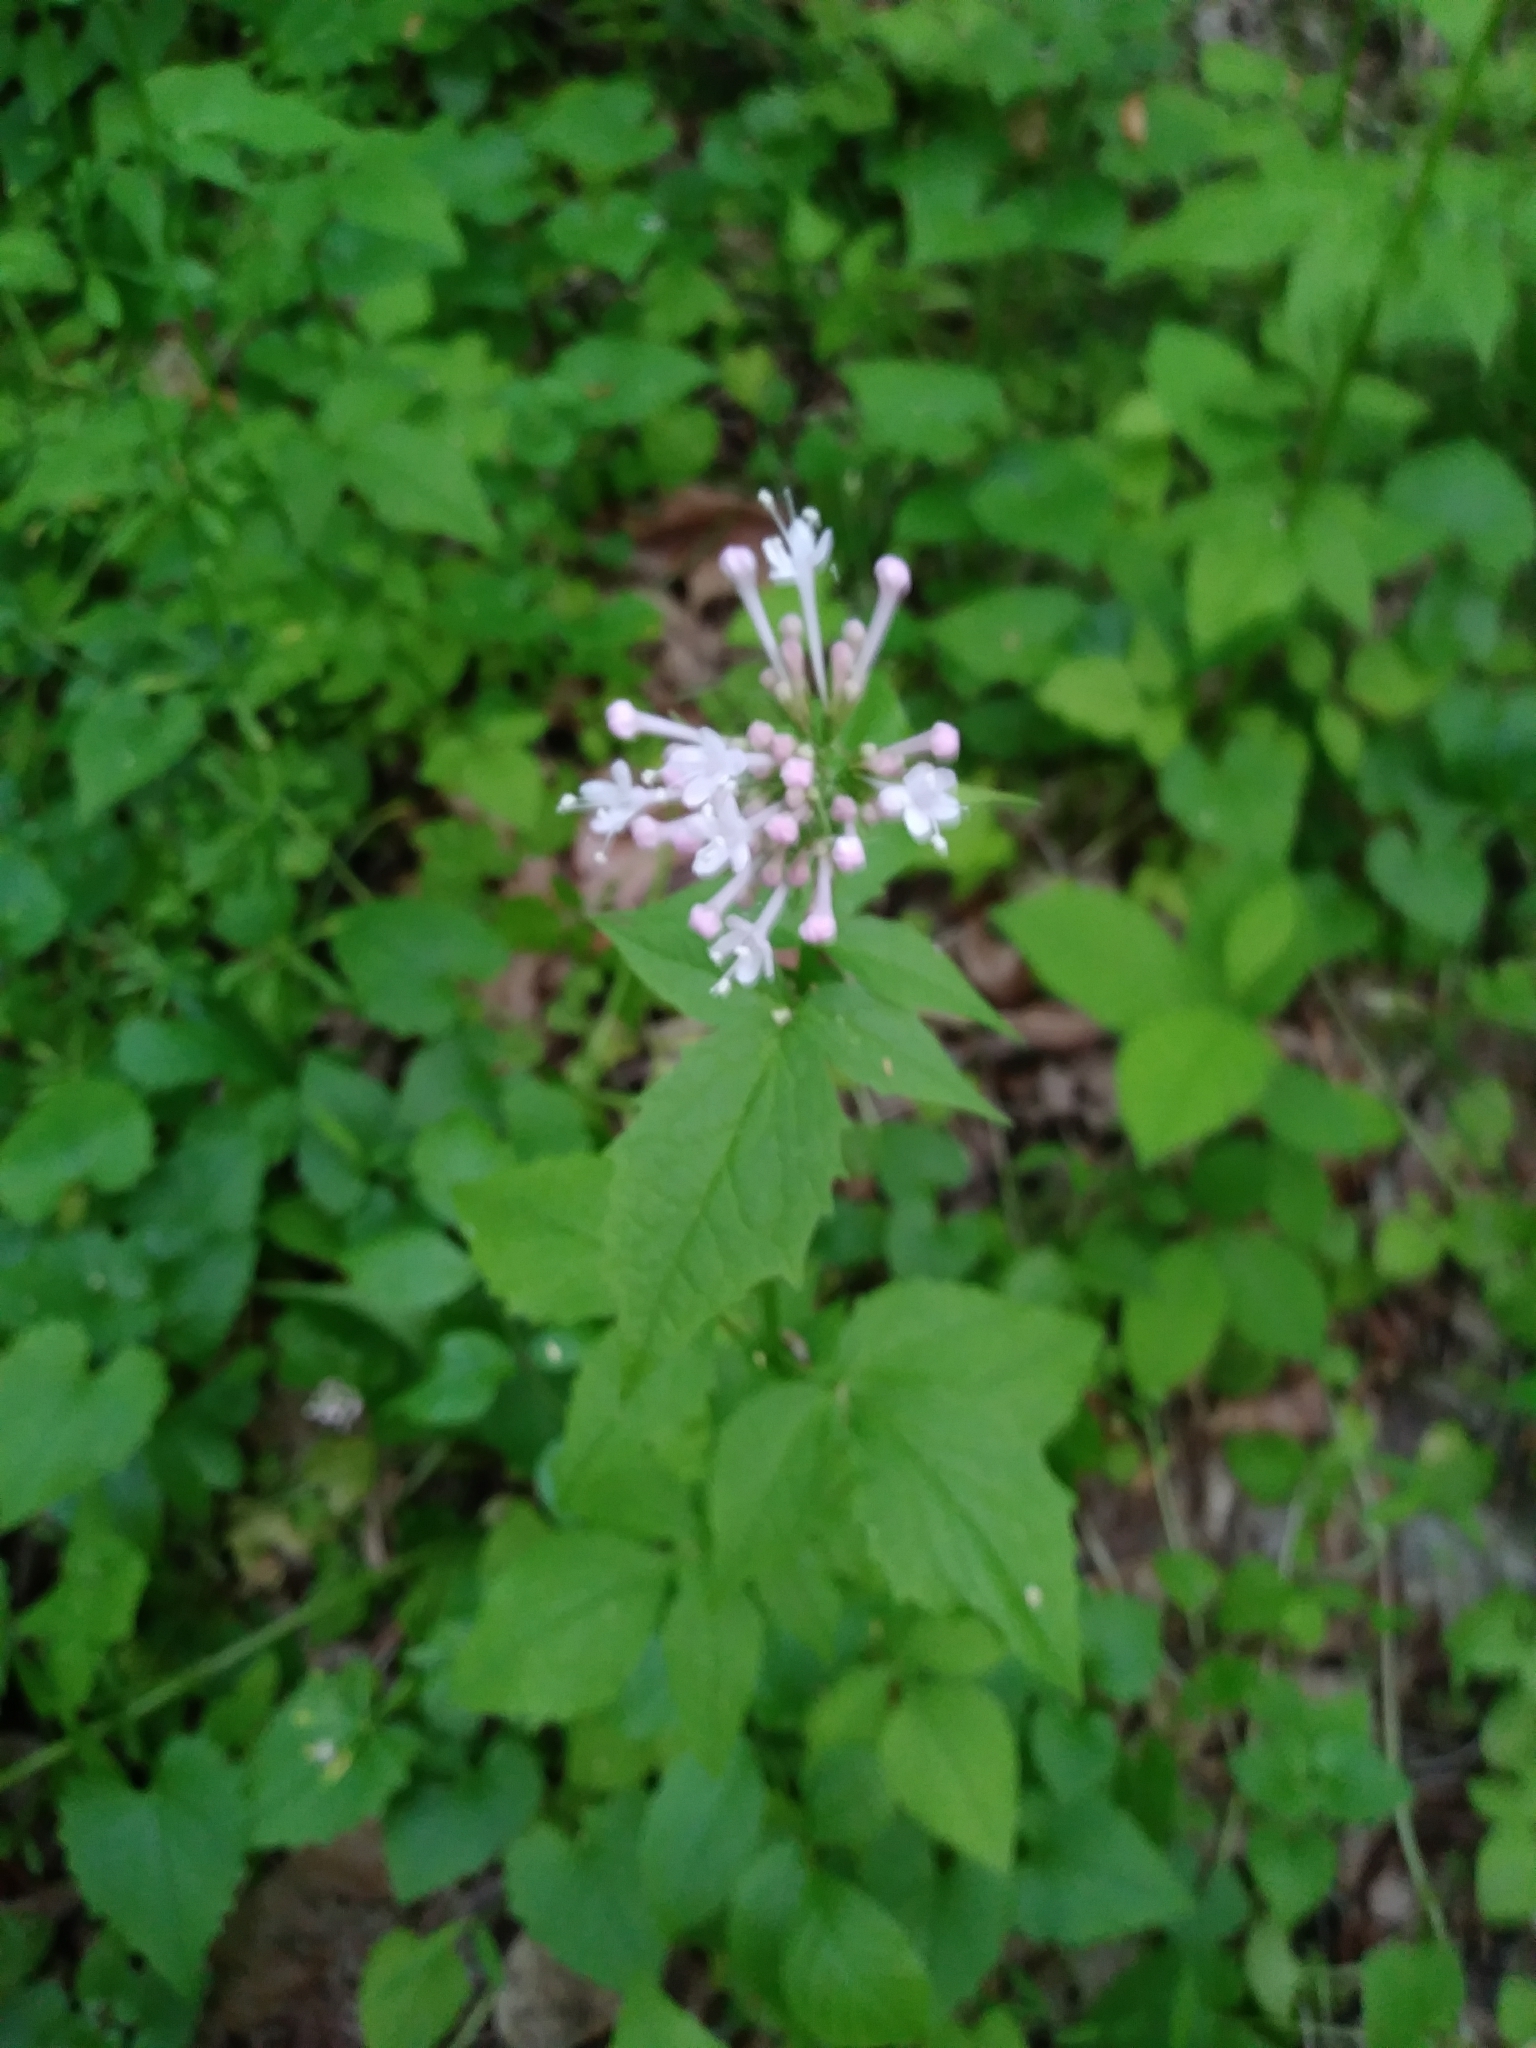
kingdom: Plantae
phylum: Tracheophyta
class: Magnoliopsida
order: Dipsacales
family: Caprifoliaceae
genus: Valeriana
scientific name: Valeriana pauciflora
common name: Long-tube valeriana
